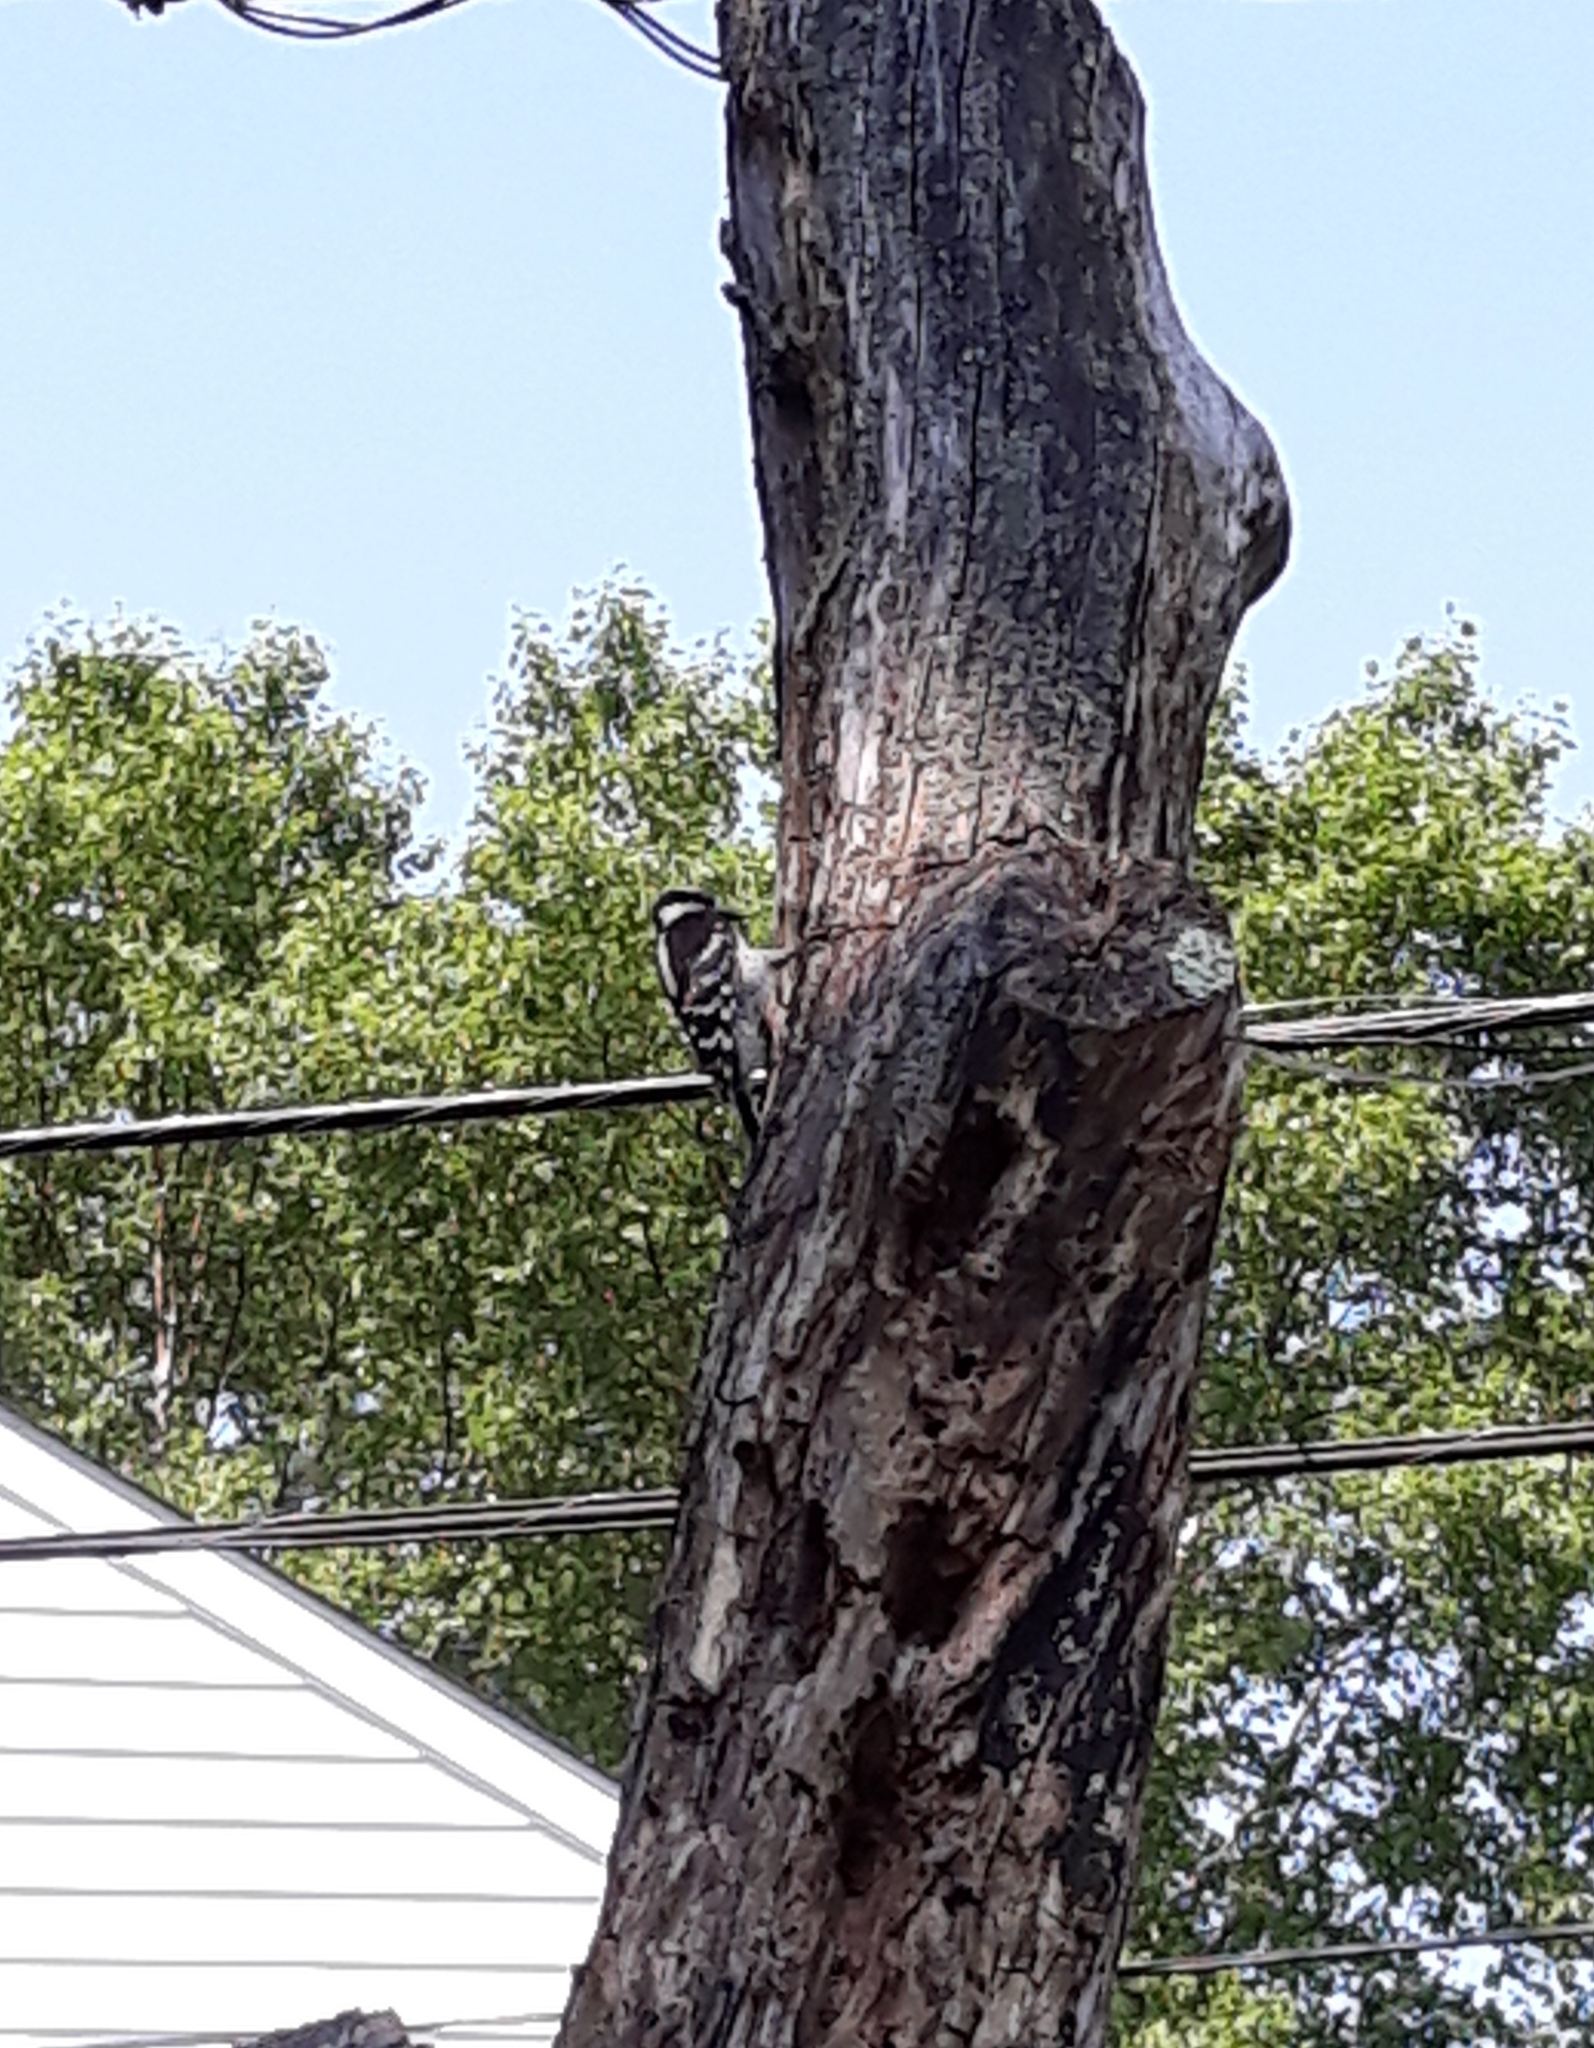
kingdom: Animalia
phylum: Chordata
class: Aves
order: Piciformes
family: Picidae
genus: Leuconotopicus
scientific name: Leuconotopicus villosus
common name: Hairy woodpecker
